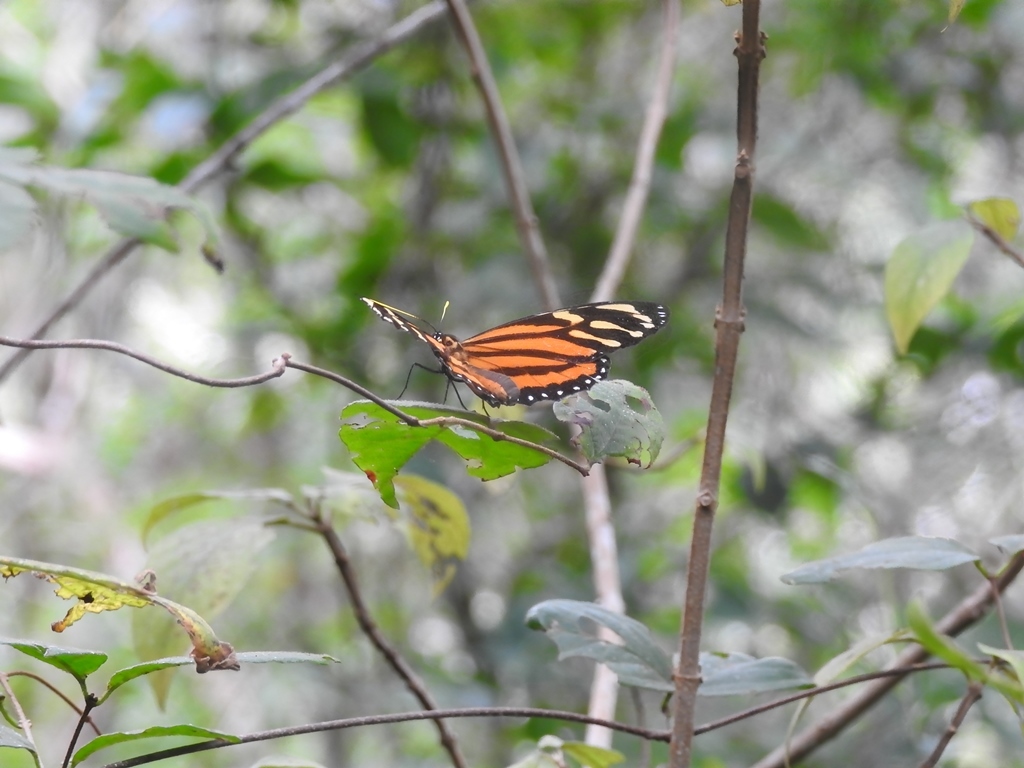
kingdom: Animalia
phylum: Arthropoda
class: Insecta
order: Lepidoptera
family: Nymphalidae
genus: Lycorea
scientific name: Lycorea cleobaea
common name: Tiger mimic-queen
